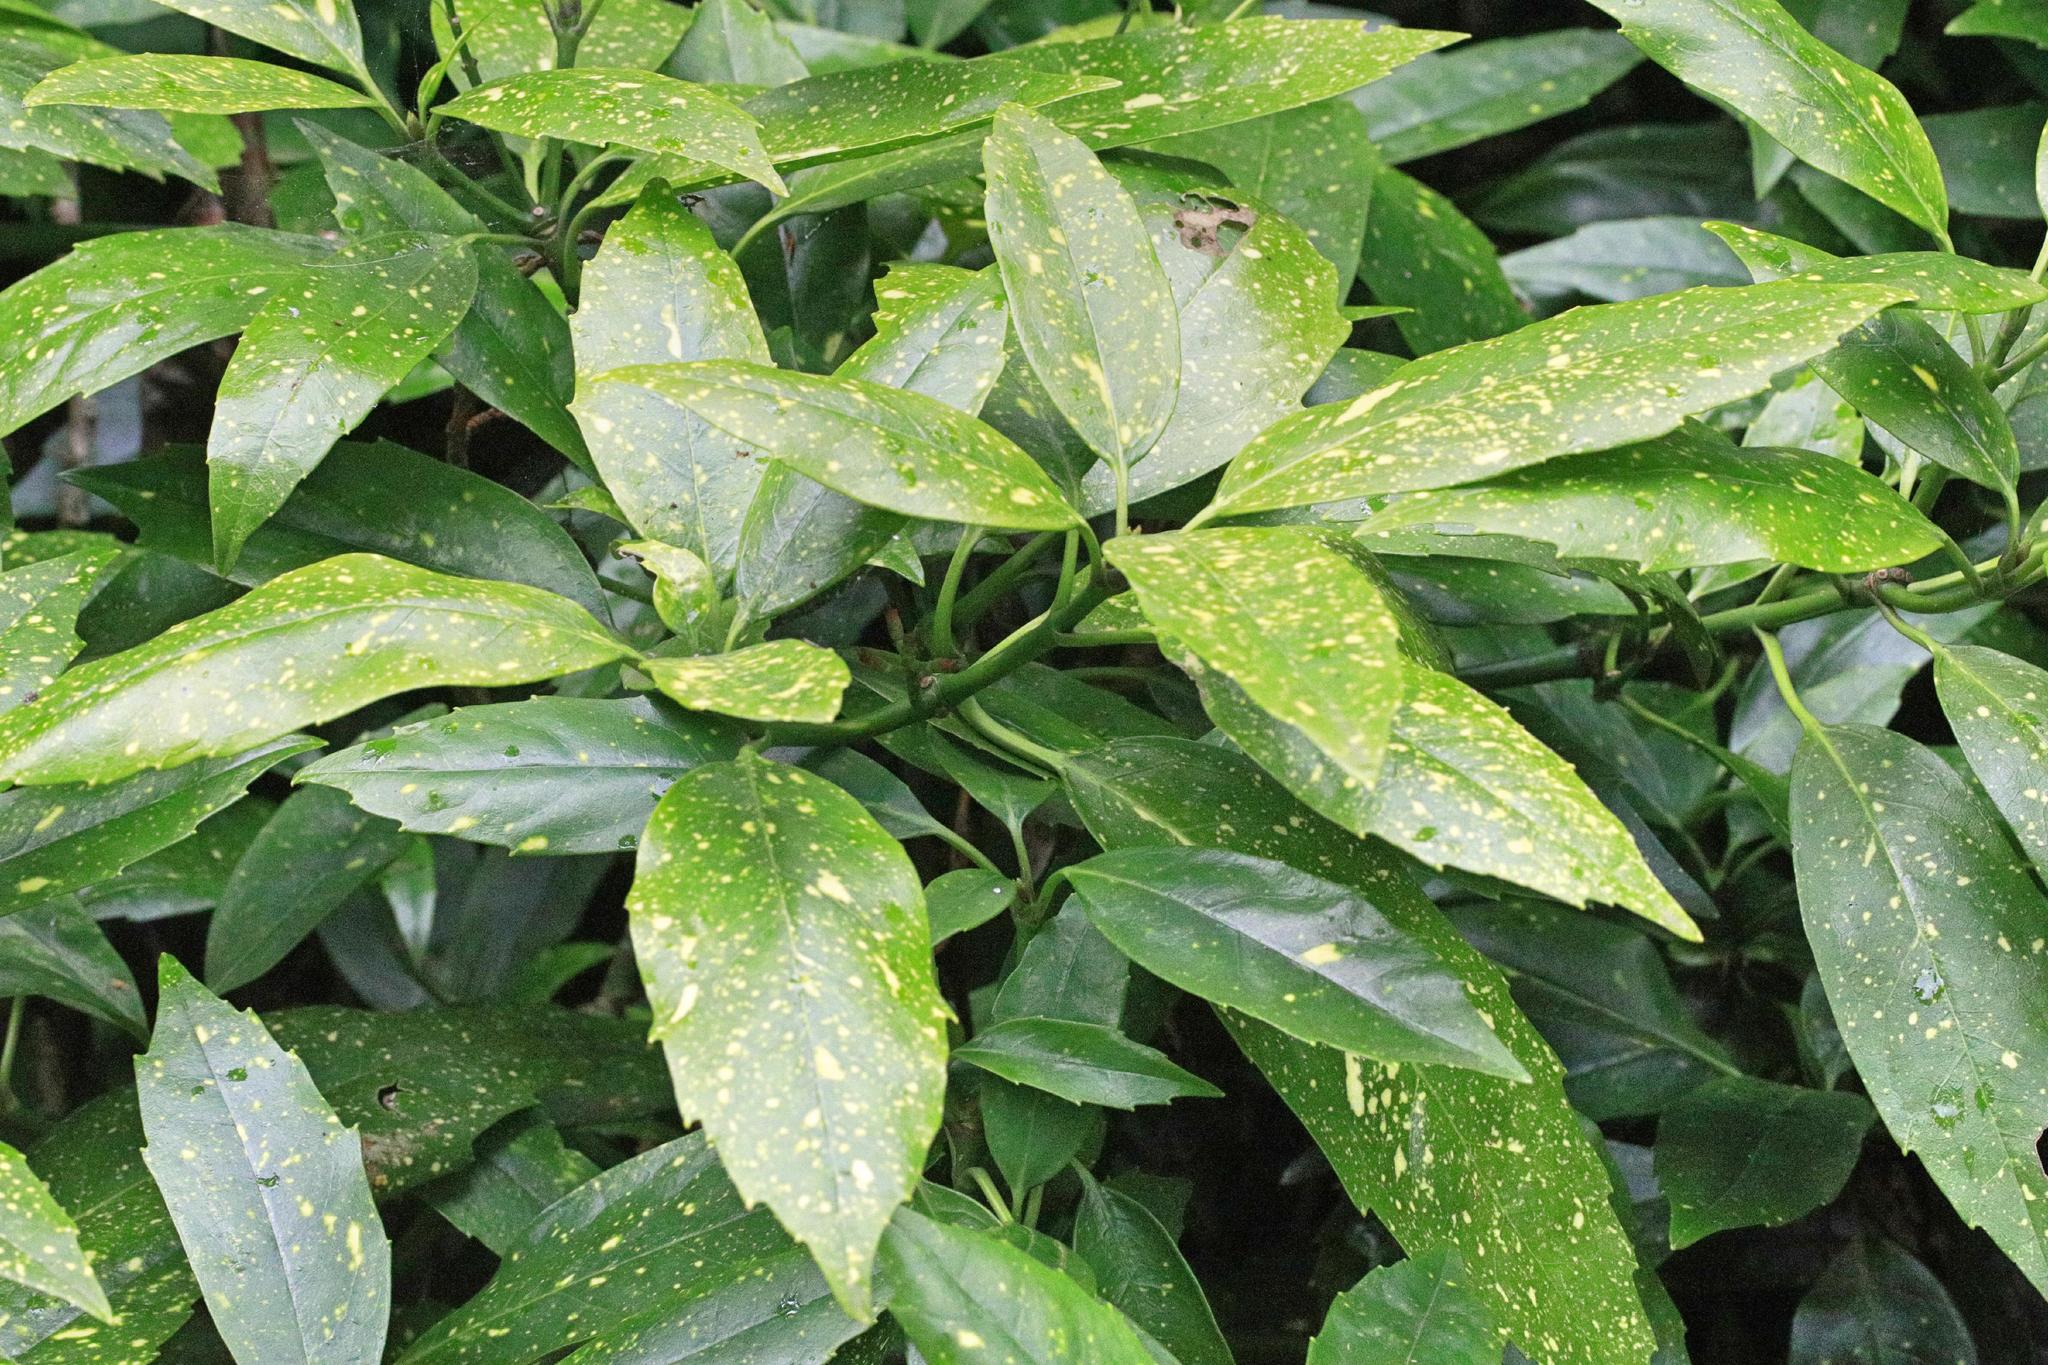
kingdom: Plantae
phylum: Tracheophyta
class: Magnoliopsida
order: Garryales
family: Garryaceae
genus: Aucuba
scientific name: Aucuba japonica
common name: Spotted-laurel
